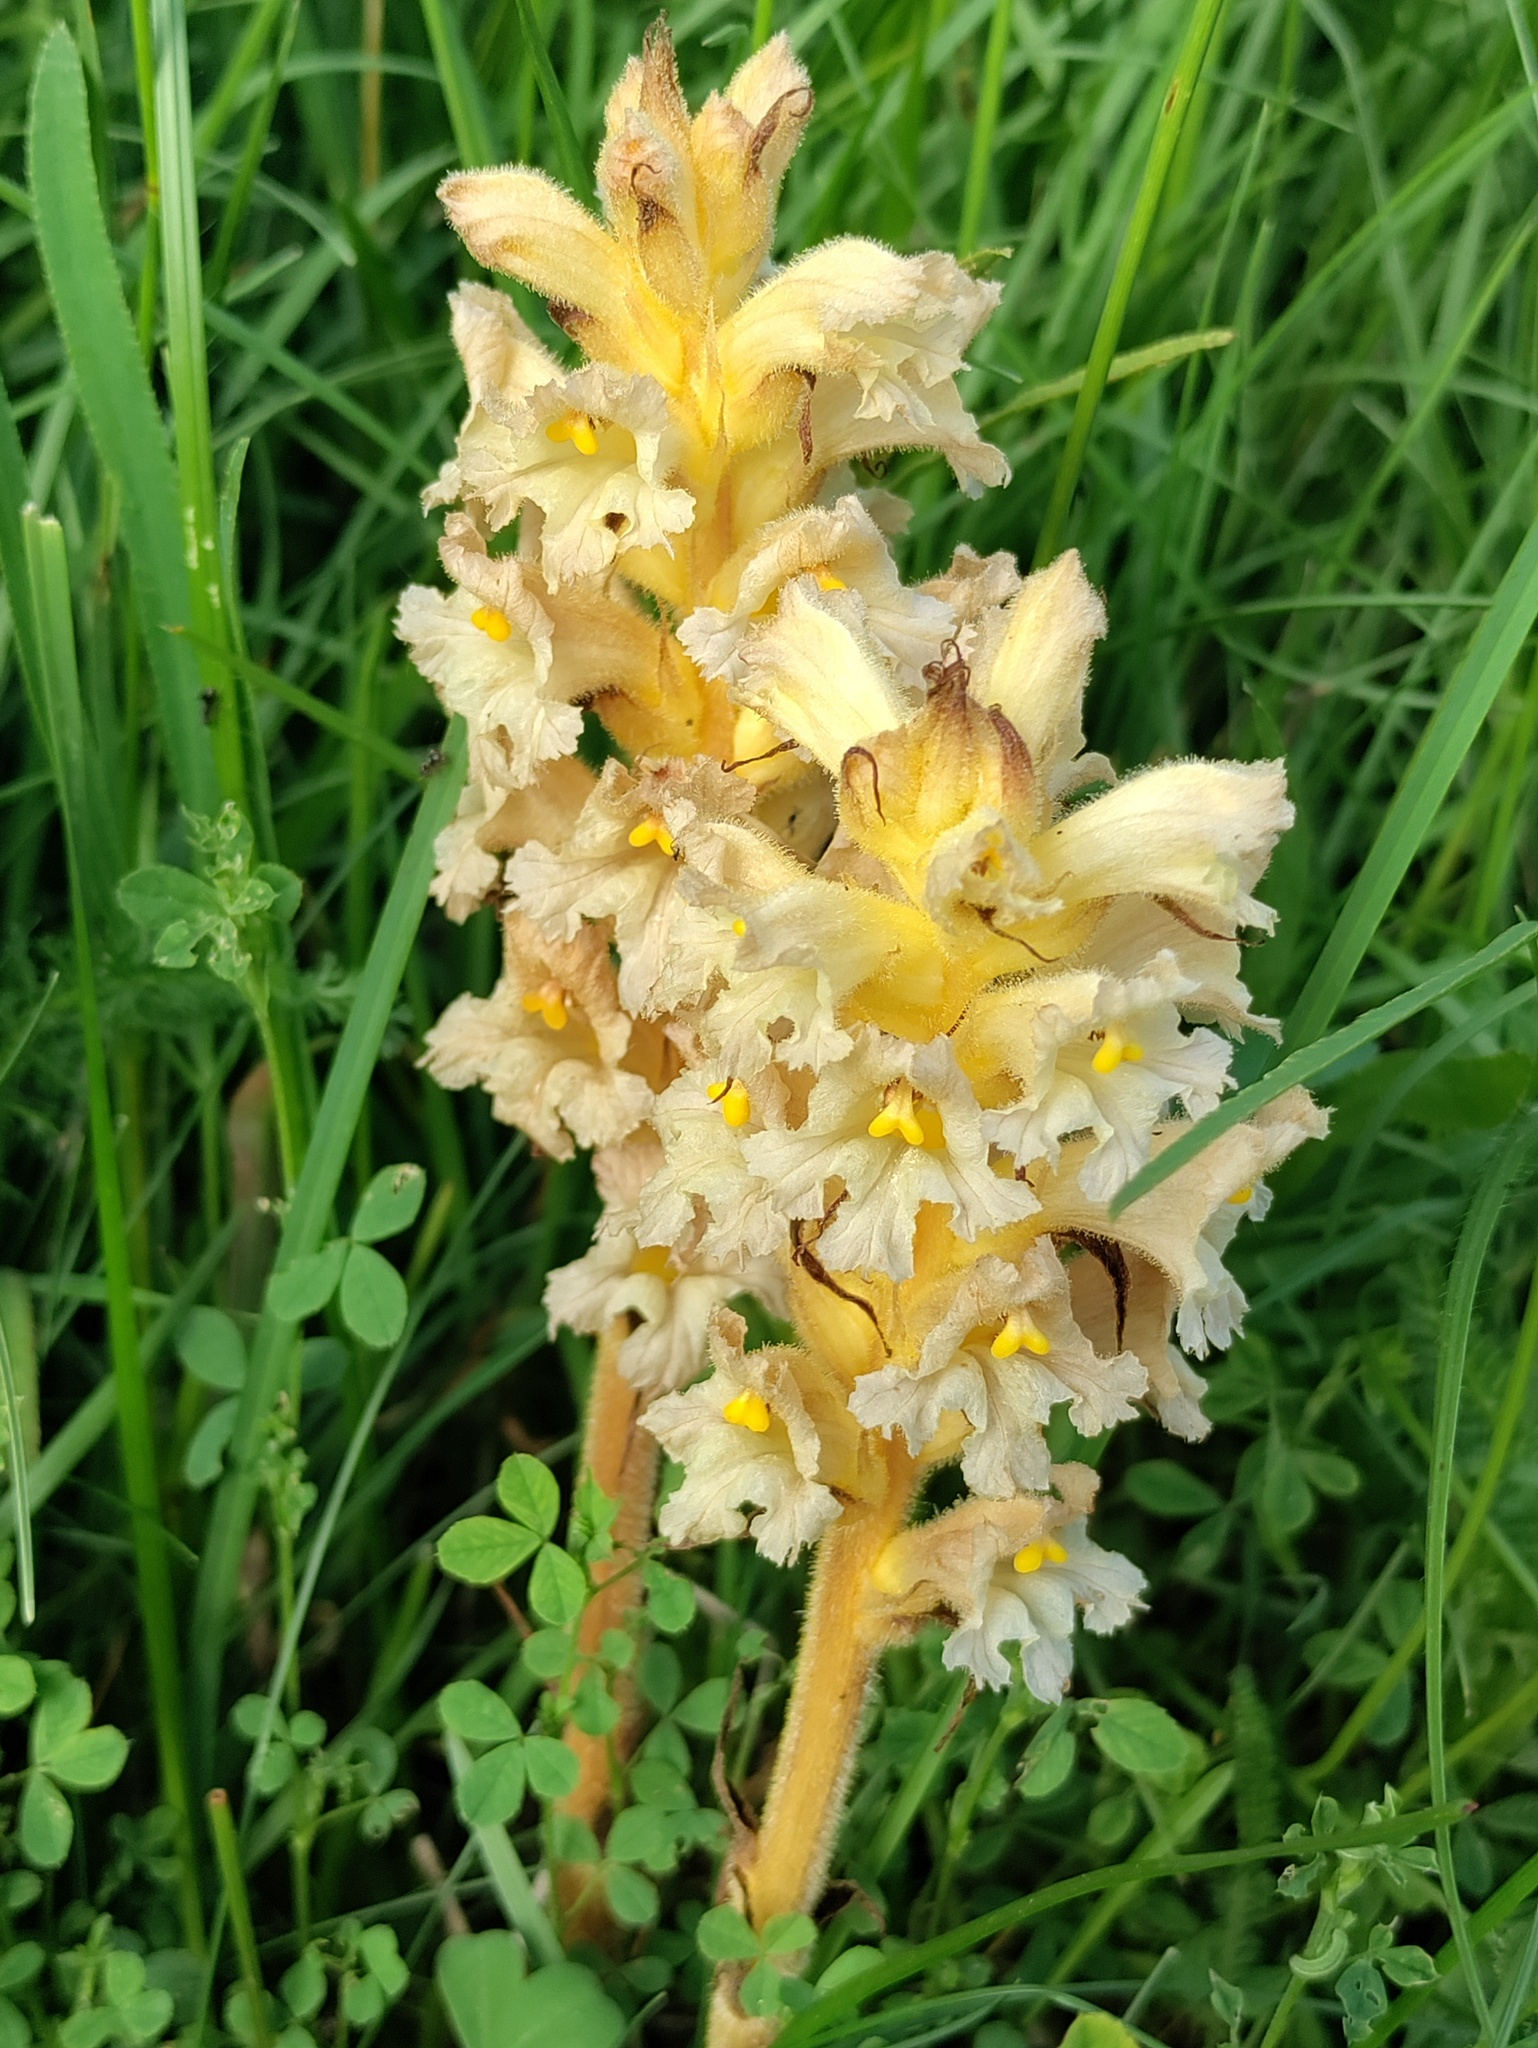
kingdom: Plantae
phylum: Tracheophyta
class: Magnoliopsida
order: Lamiales
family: Orobanchaceae
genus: Orobanche
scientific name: Orobanche lutea
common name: Yellow broomrape
